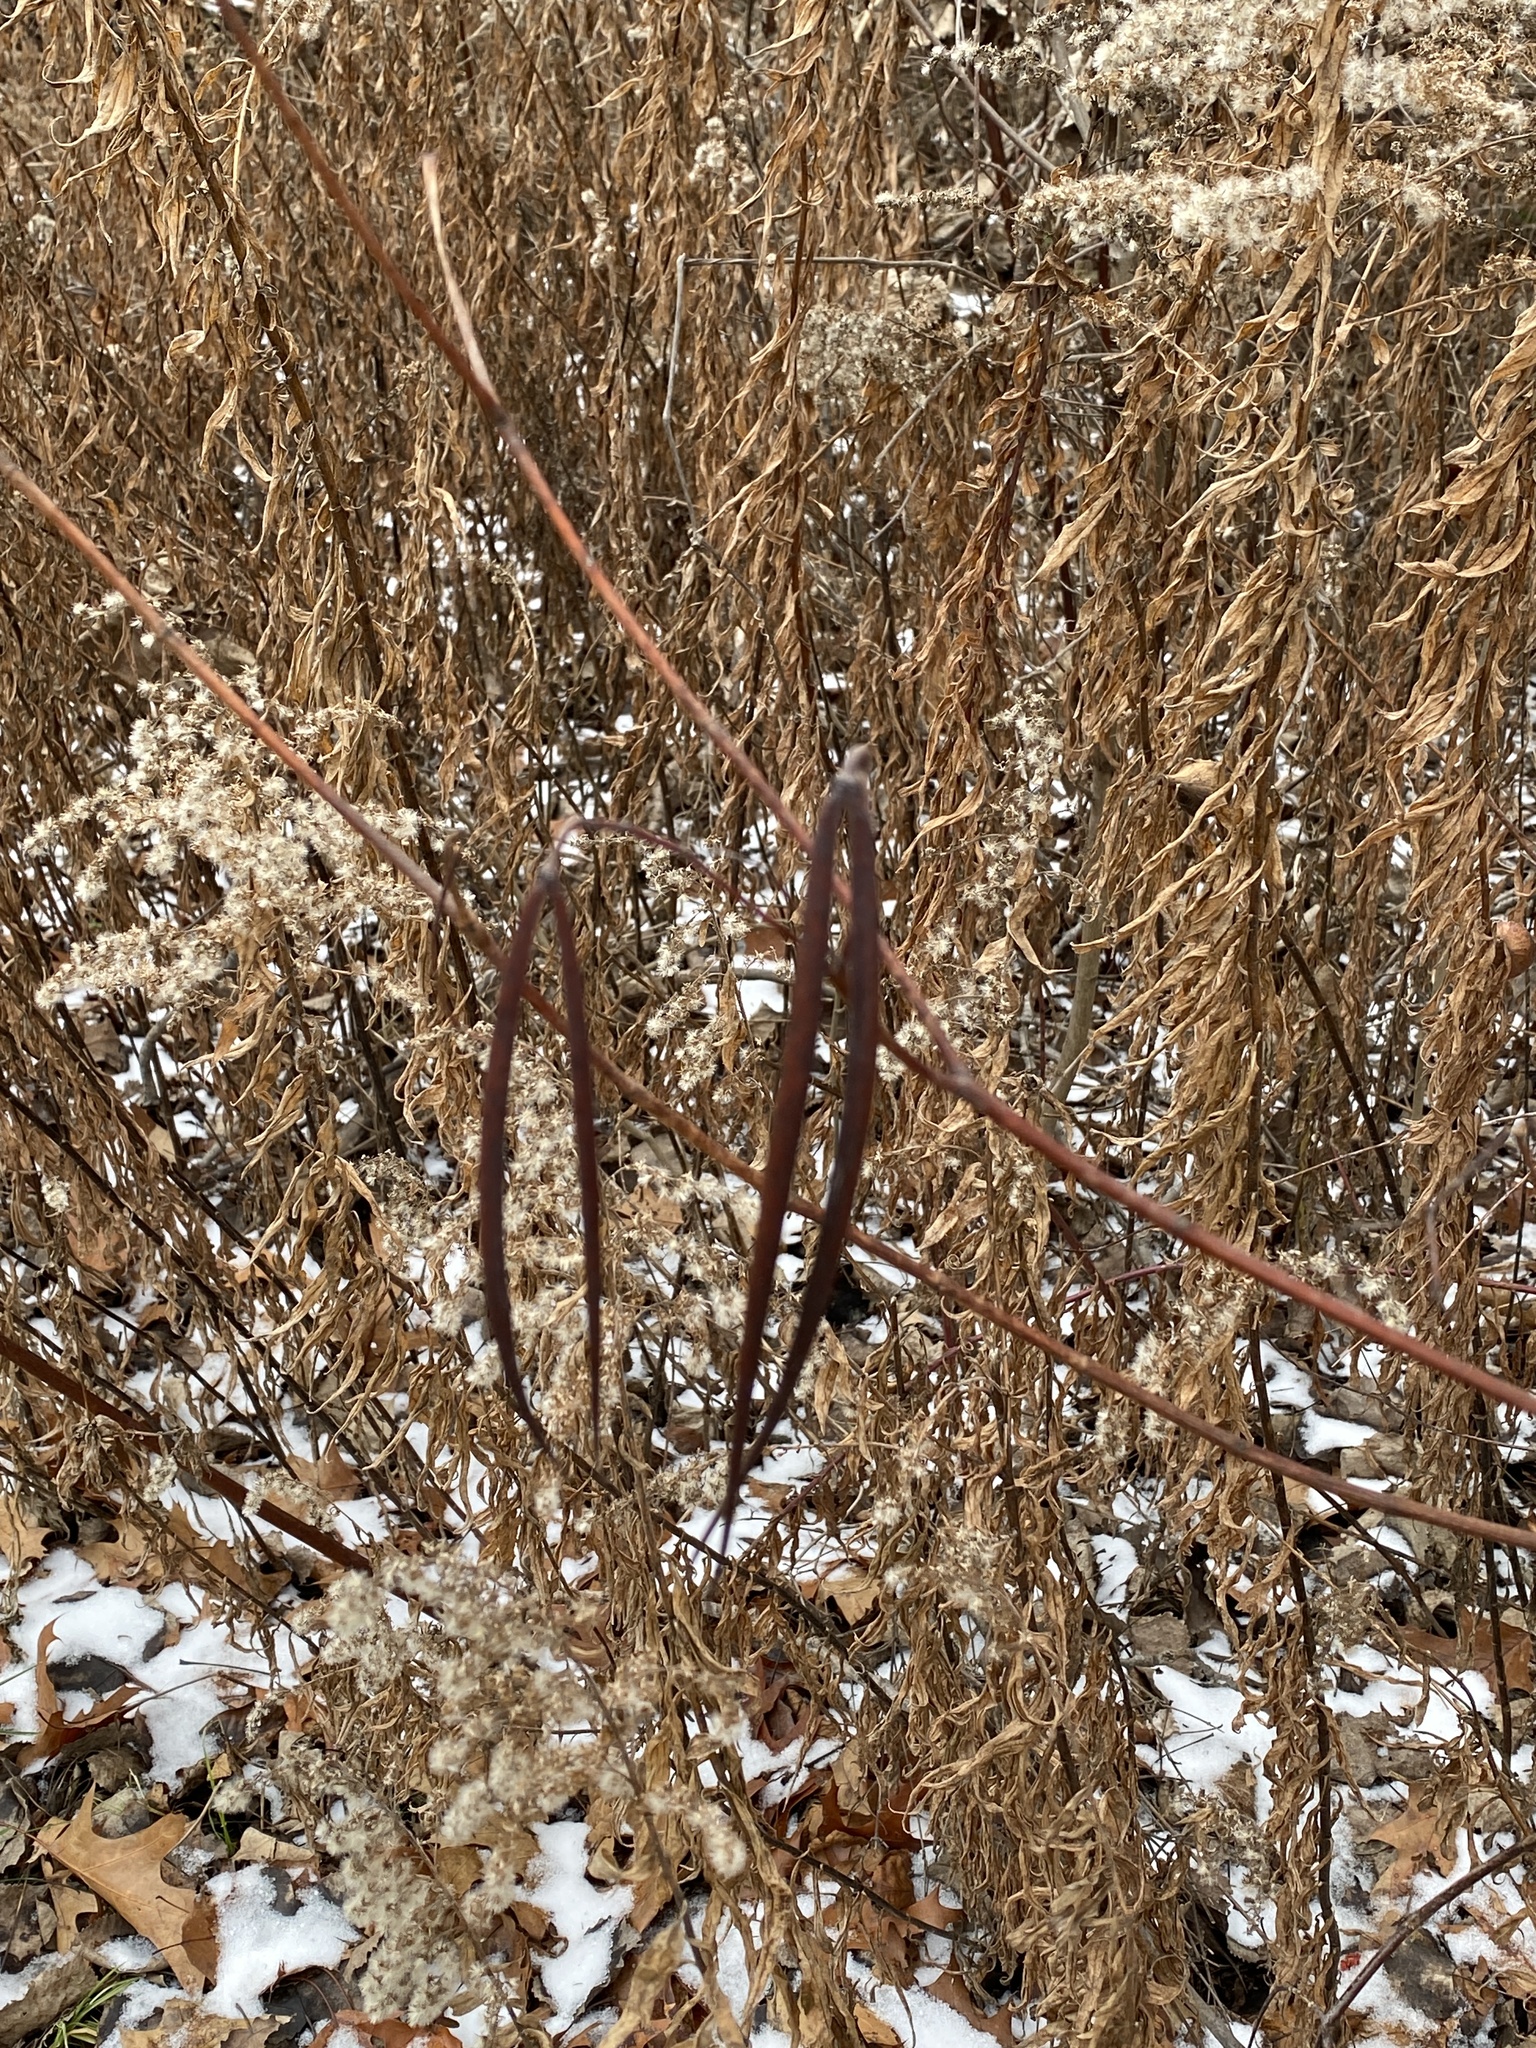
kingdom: Plantae
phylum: Tracheophyta
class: Magnoliopsida
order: Gentianales
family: Apocynaceae
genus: Apocynum
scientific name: Apocynum cannabinum
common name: Hemp dogbane
